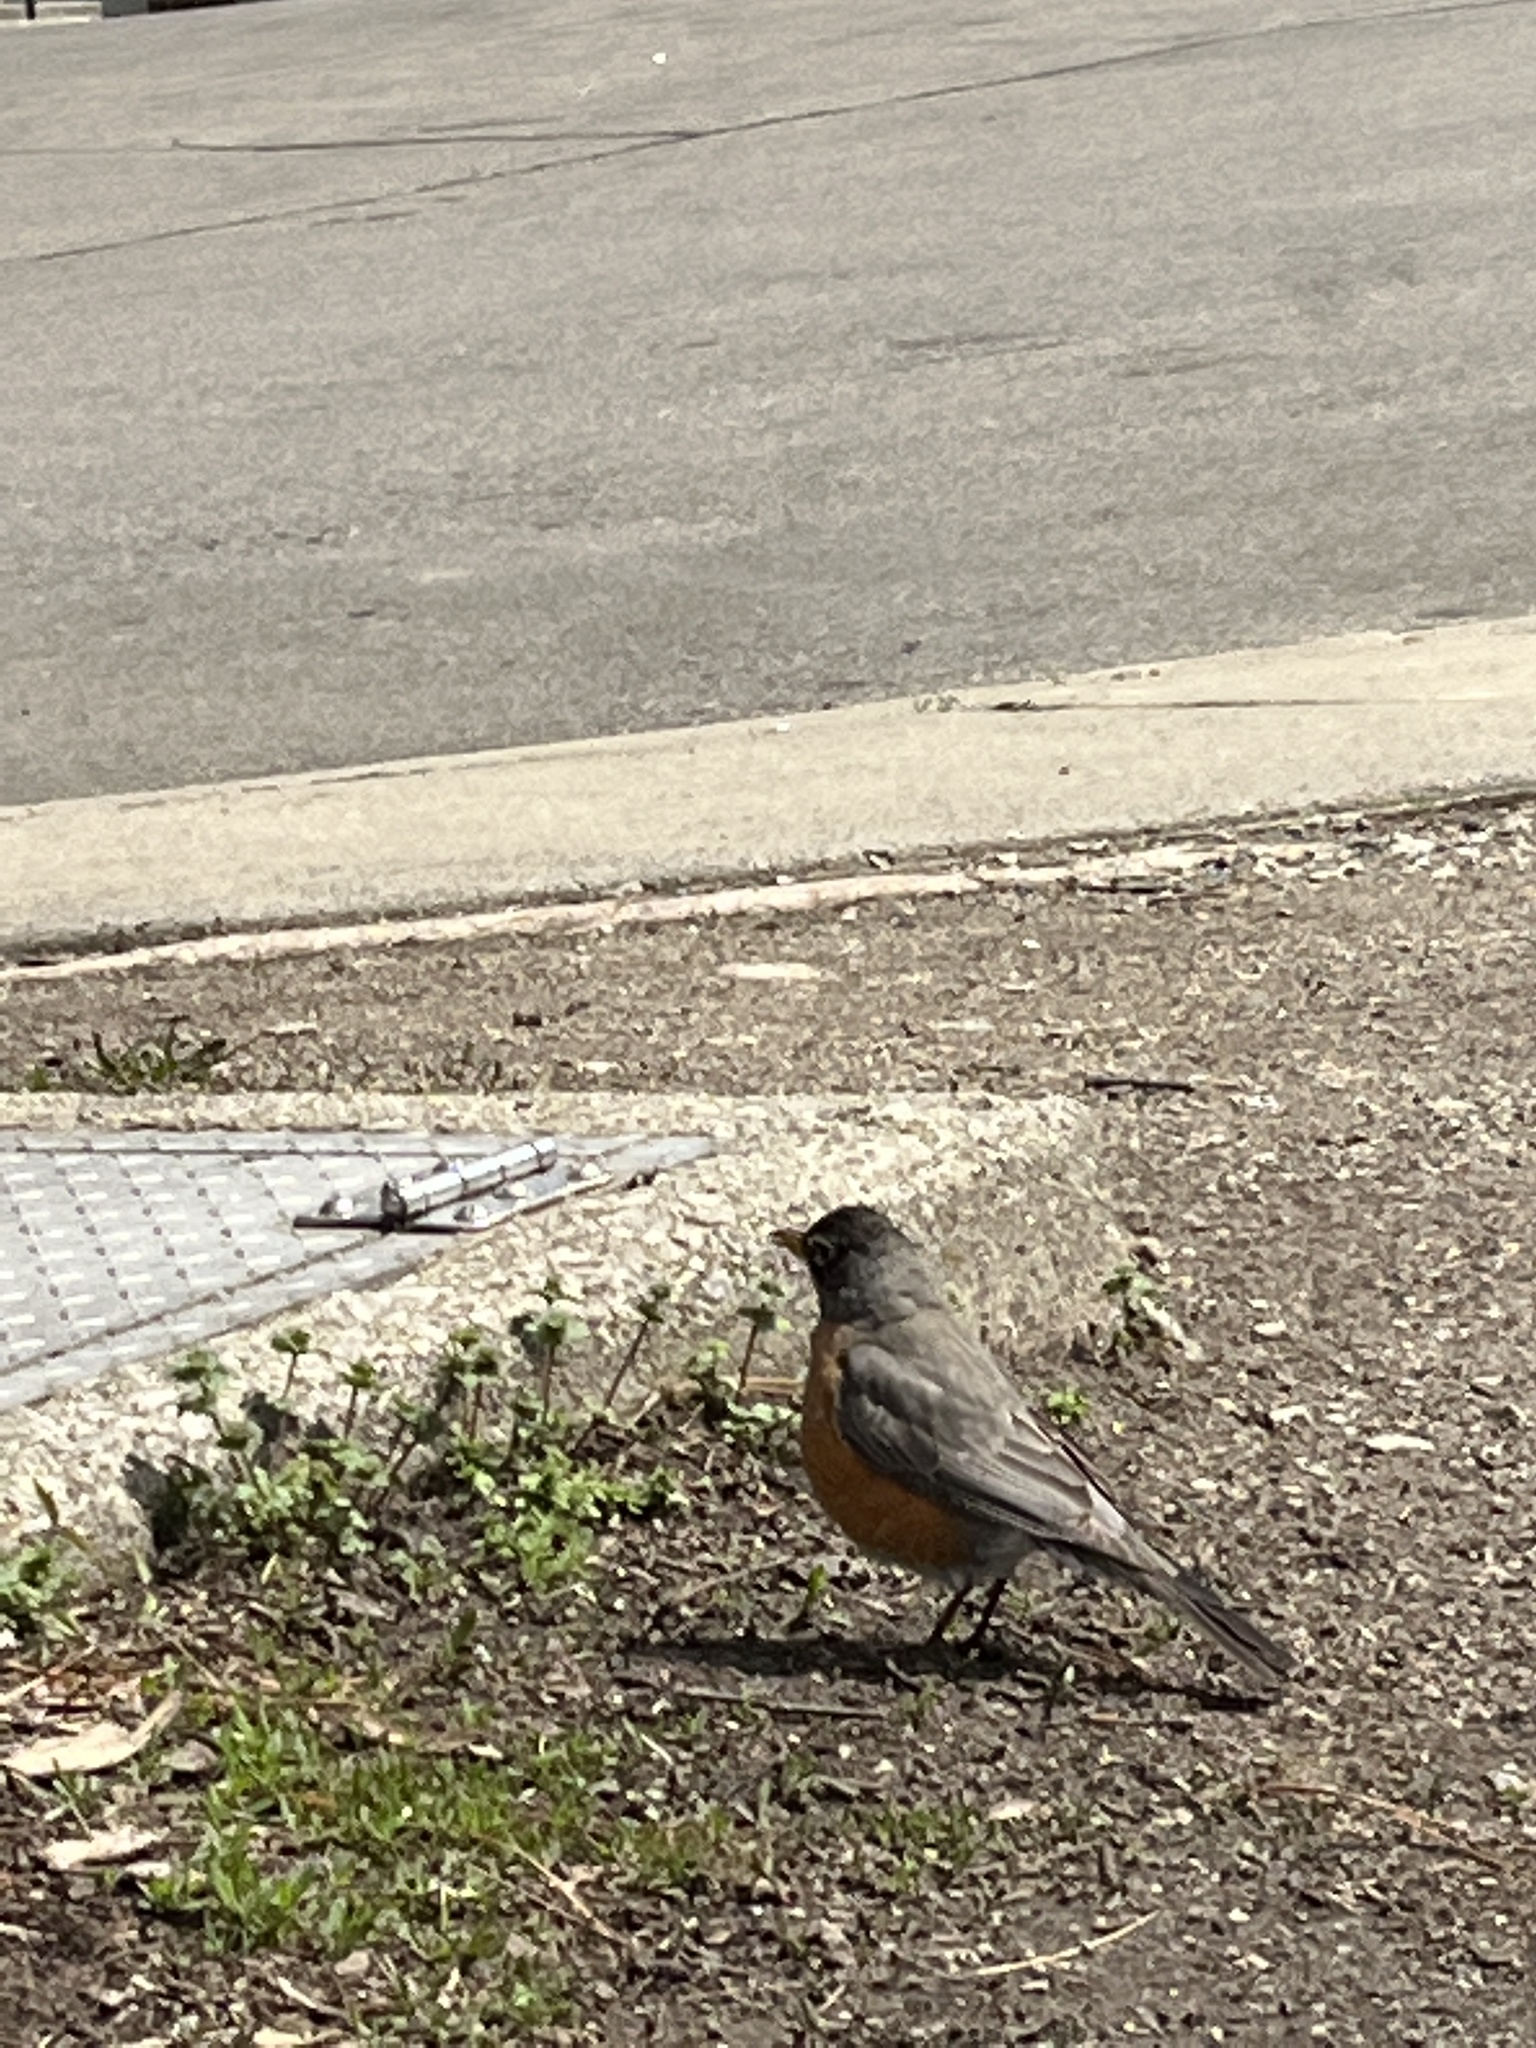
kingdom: Animalia
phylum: Chordata
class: Aves
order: Passeriformes
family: Turdidae
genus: Turdus
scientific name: Turdus migratorius
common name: American robin
